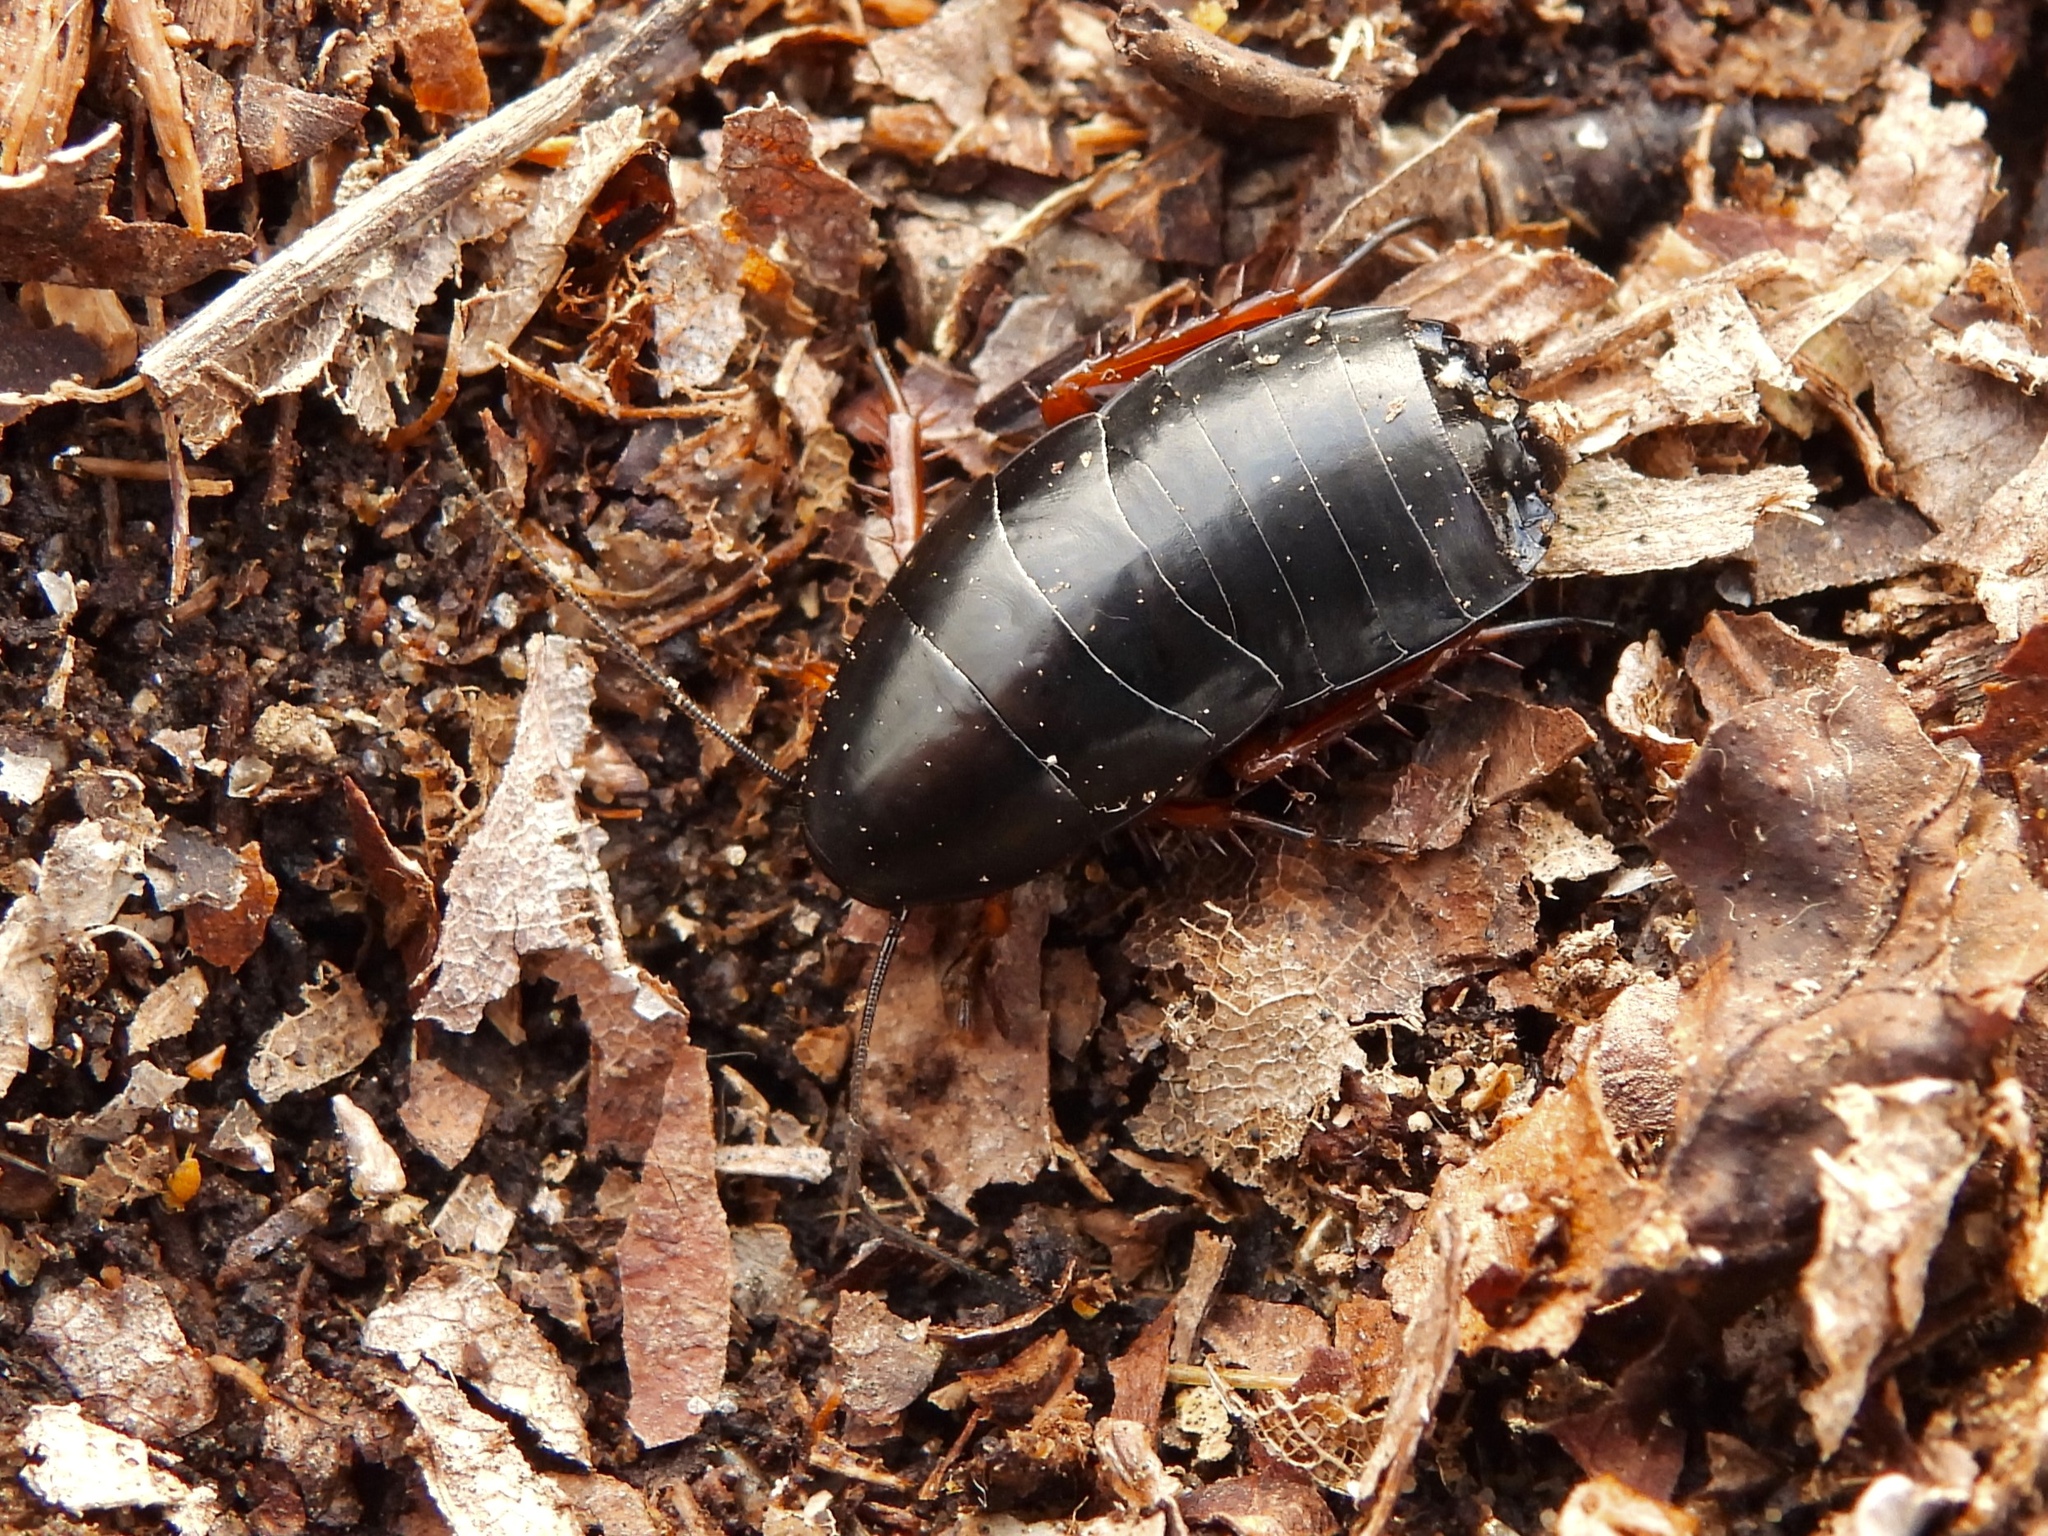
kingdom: Animalia
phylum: Arthropoda
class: Insecta
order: Blattodea
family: Ectobiidae
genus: Ischnoptera
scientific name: Ischnoptera deropeltiformis
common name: Dark wood cockroach
